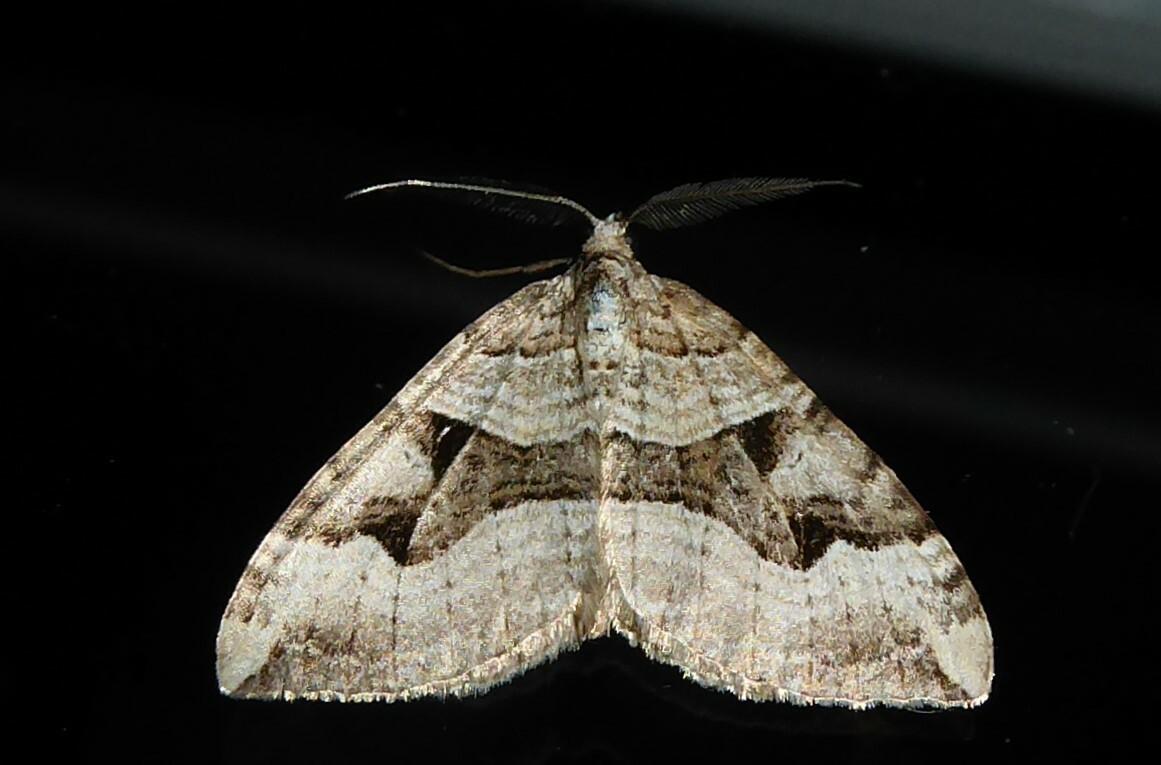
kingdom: Animalia
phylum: Arthropoda
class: Insecta
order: Lepidoptera
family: Geometridae
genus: Xanthorhoe
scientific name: Xanthorhoe semifissata
